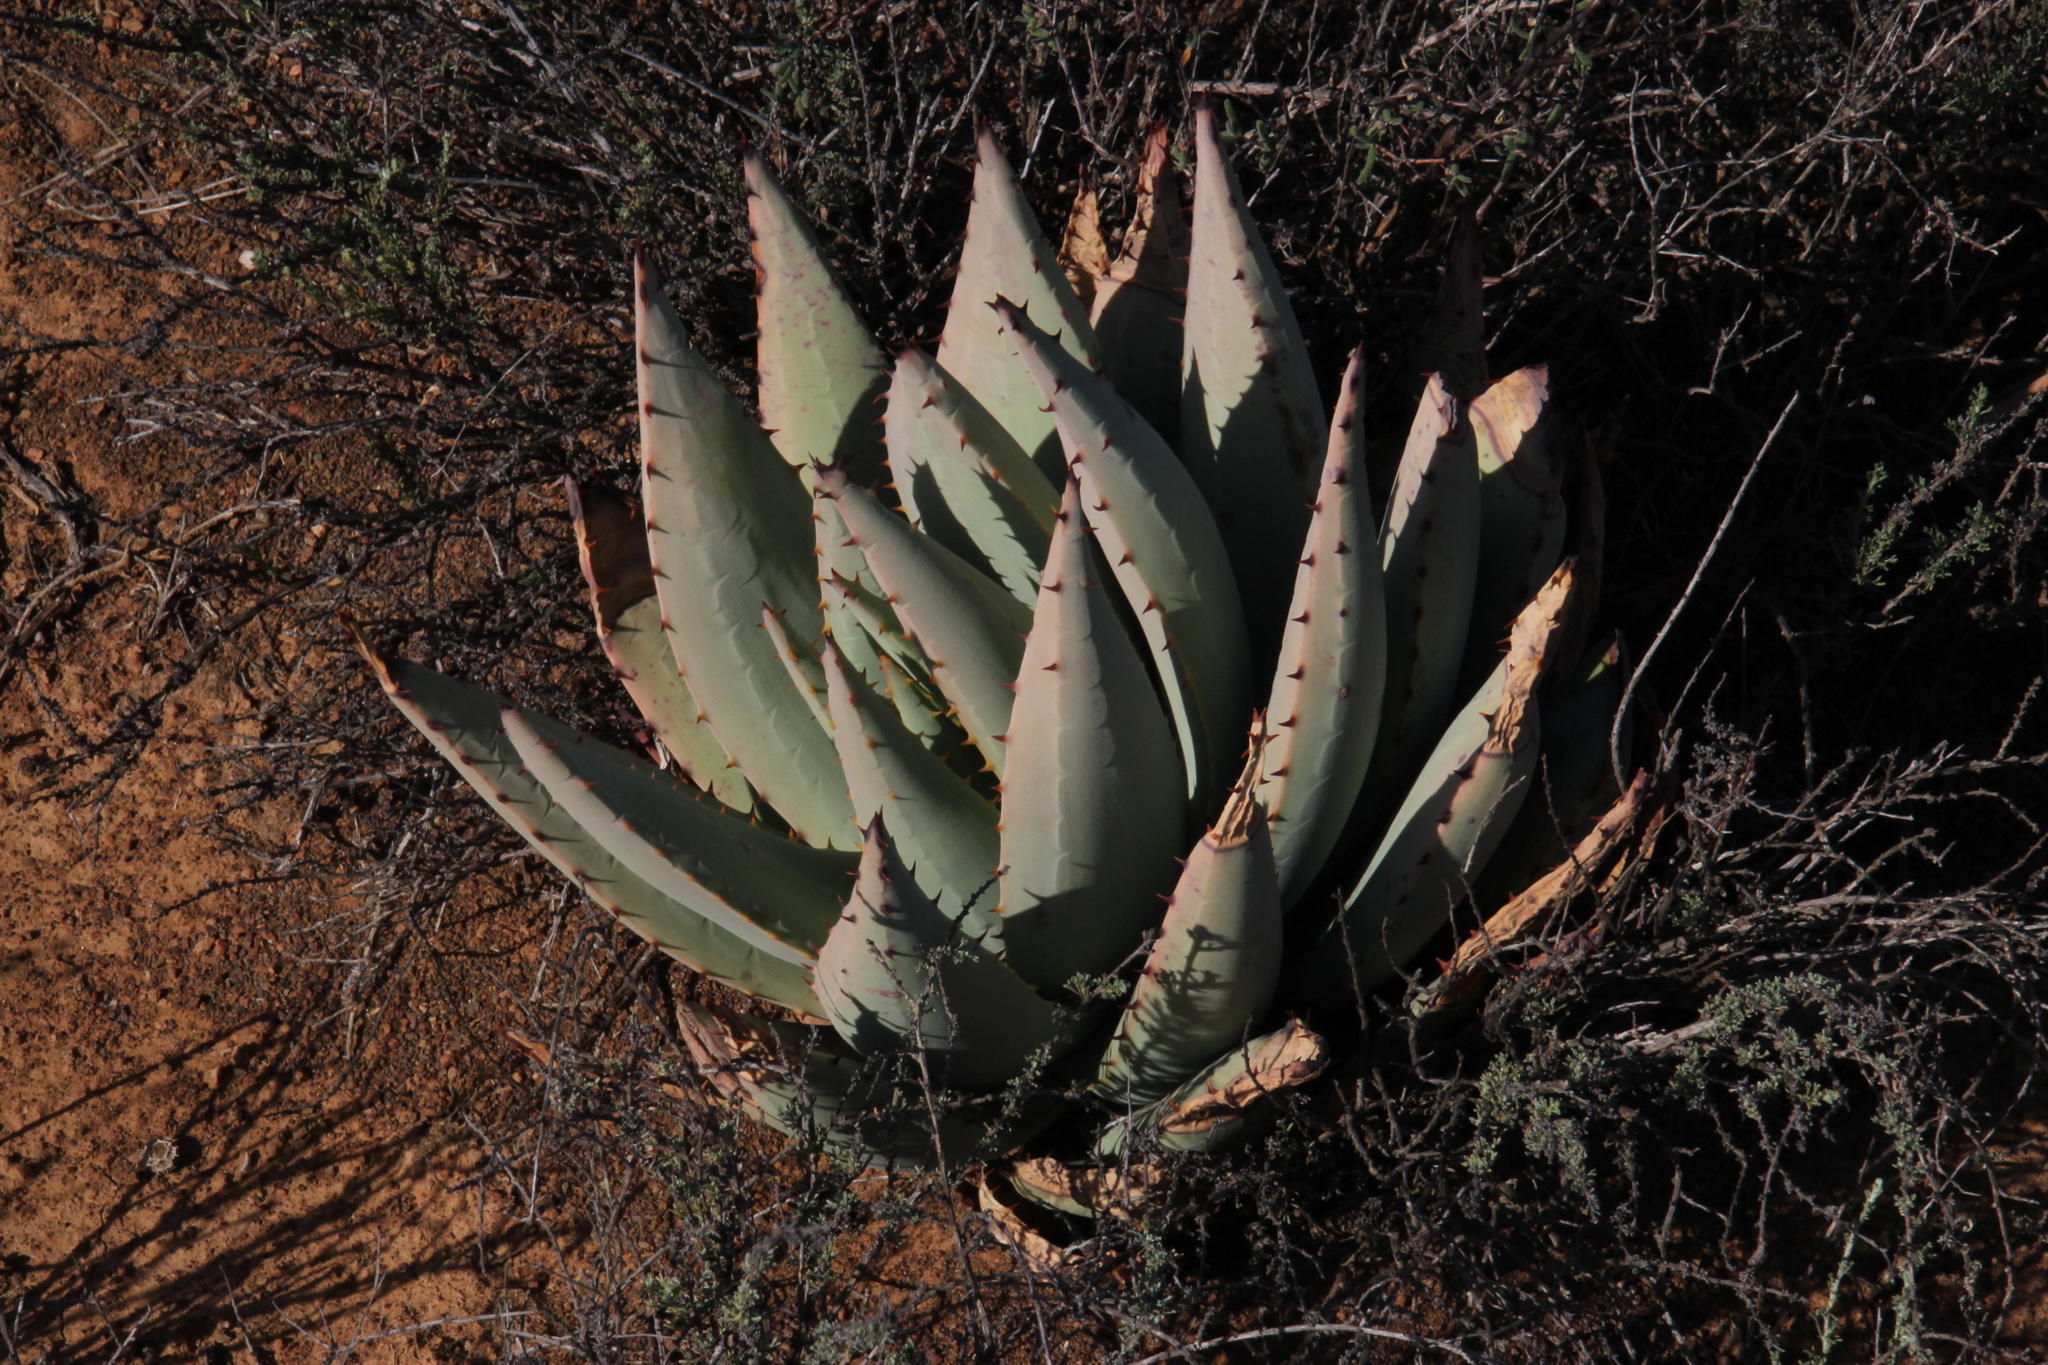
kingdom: Plantae
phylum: Tracheophyta
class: Liliopsida
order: Asparagales
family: Asphodelaceae
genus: Aloe
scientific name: Aloe claviflora
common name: Cannon aloe
